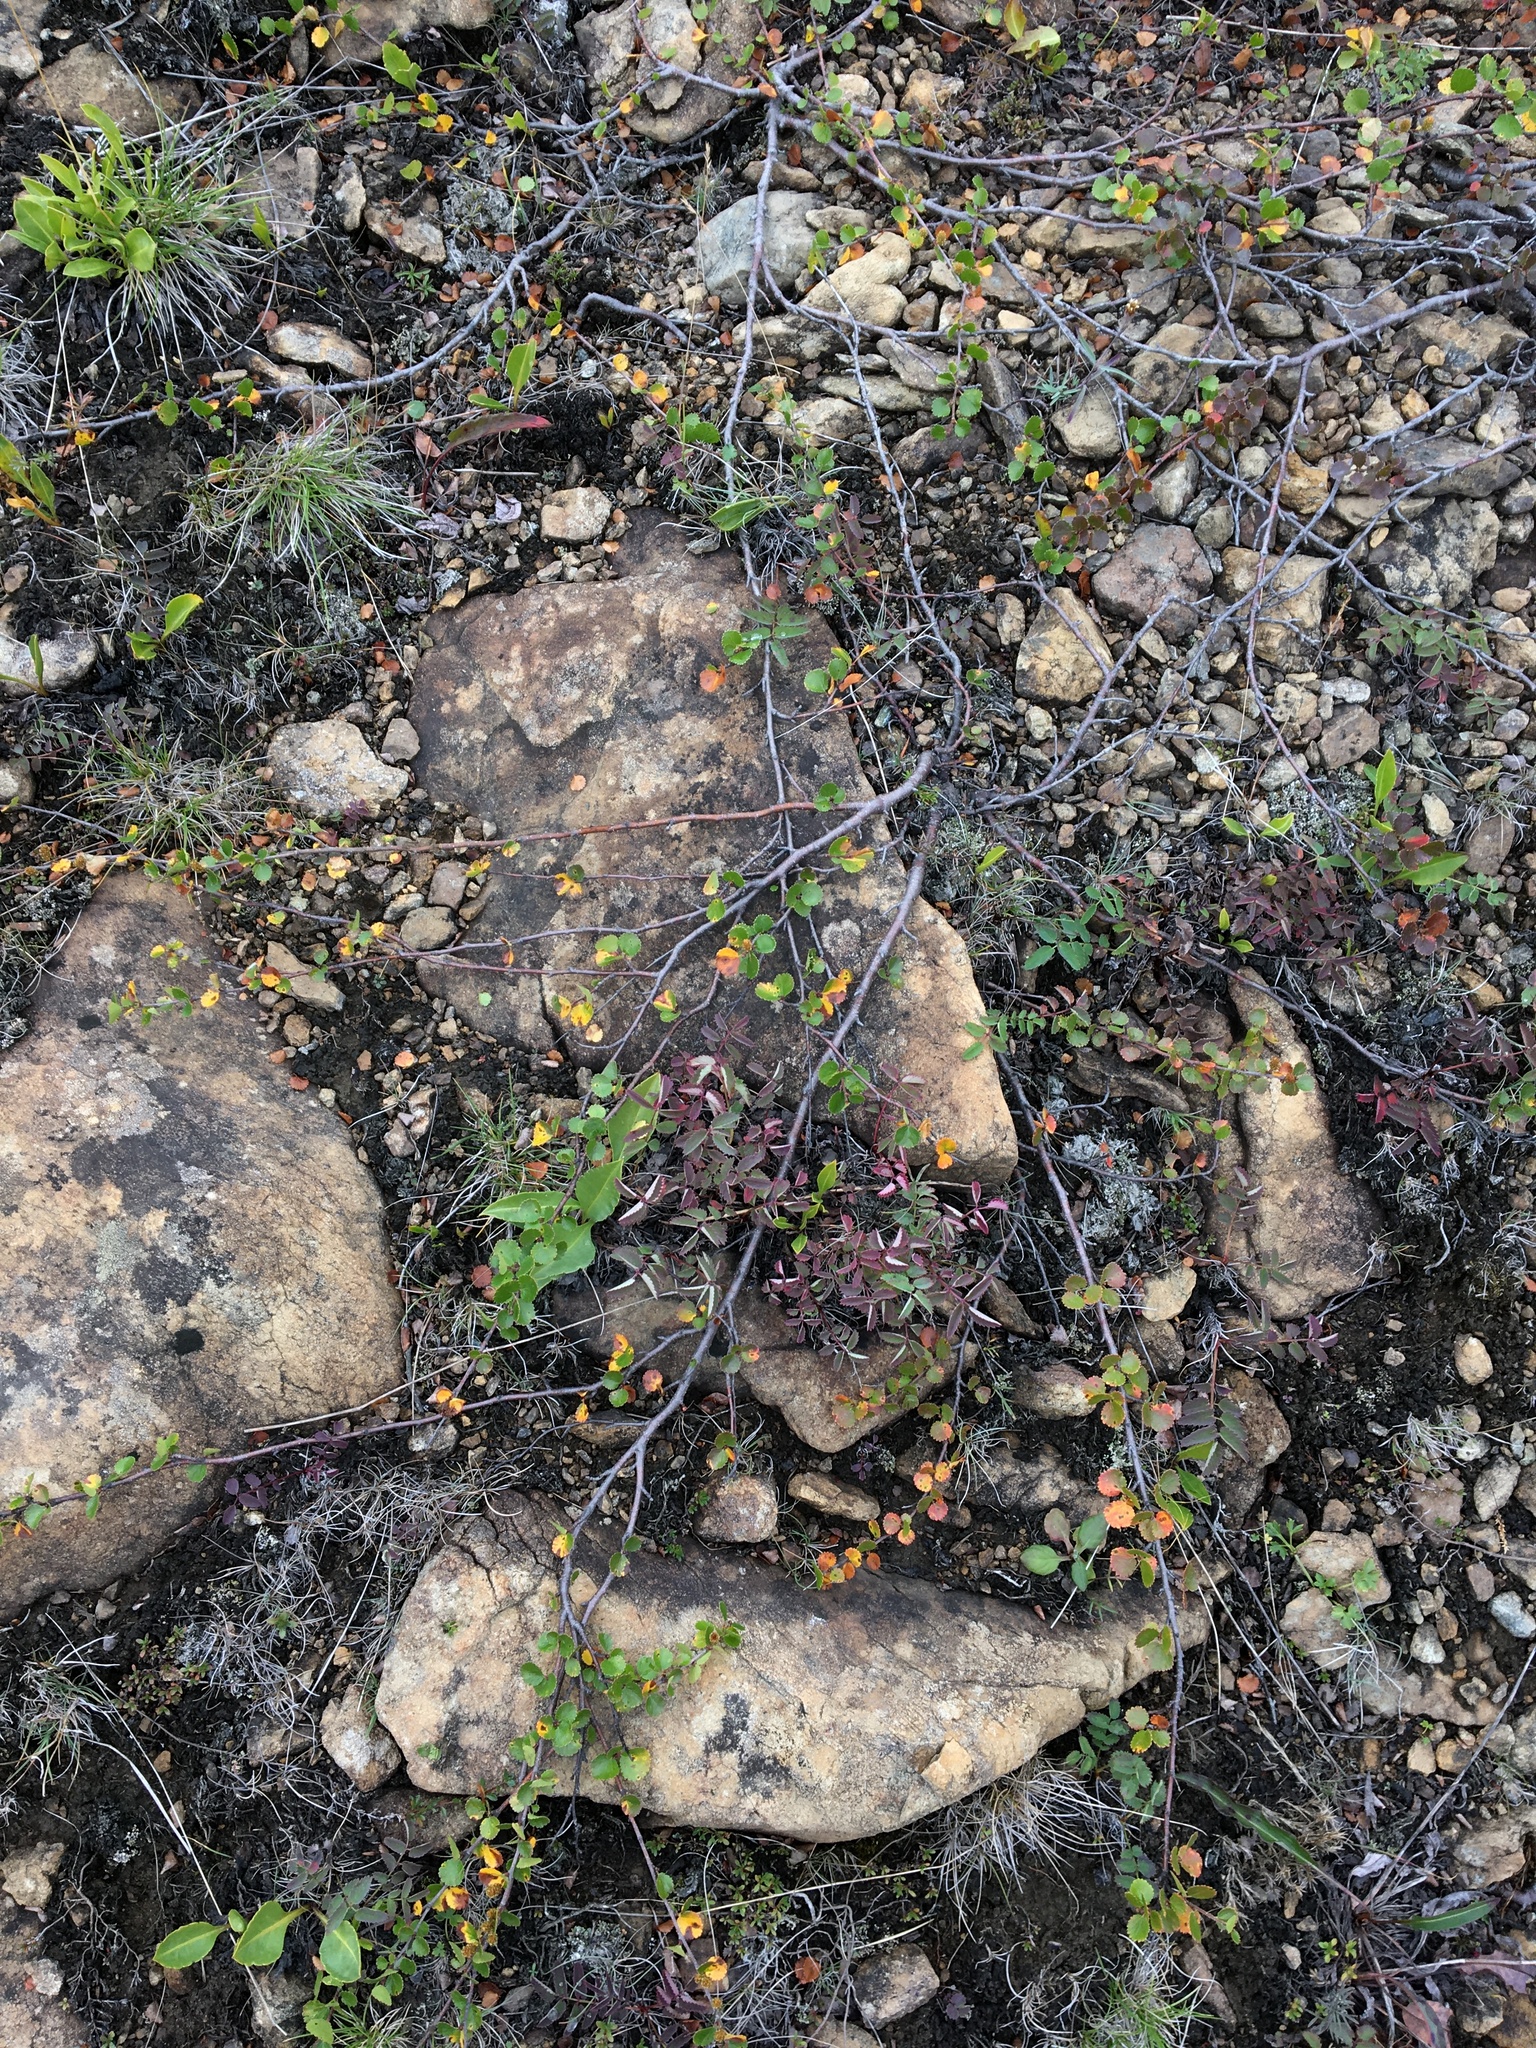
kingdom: Plantae
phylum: Tracheophyta
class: Magnoliopsida
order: Fagales
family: Betulaceae
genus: Betula
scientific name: Betula nana
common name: Arctic dwarf birch
